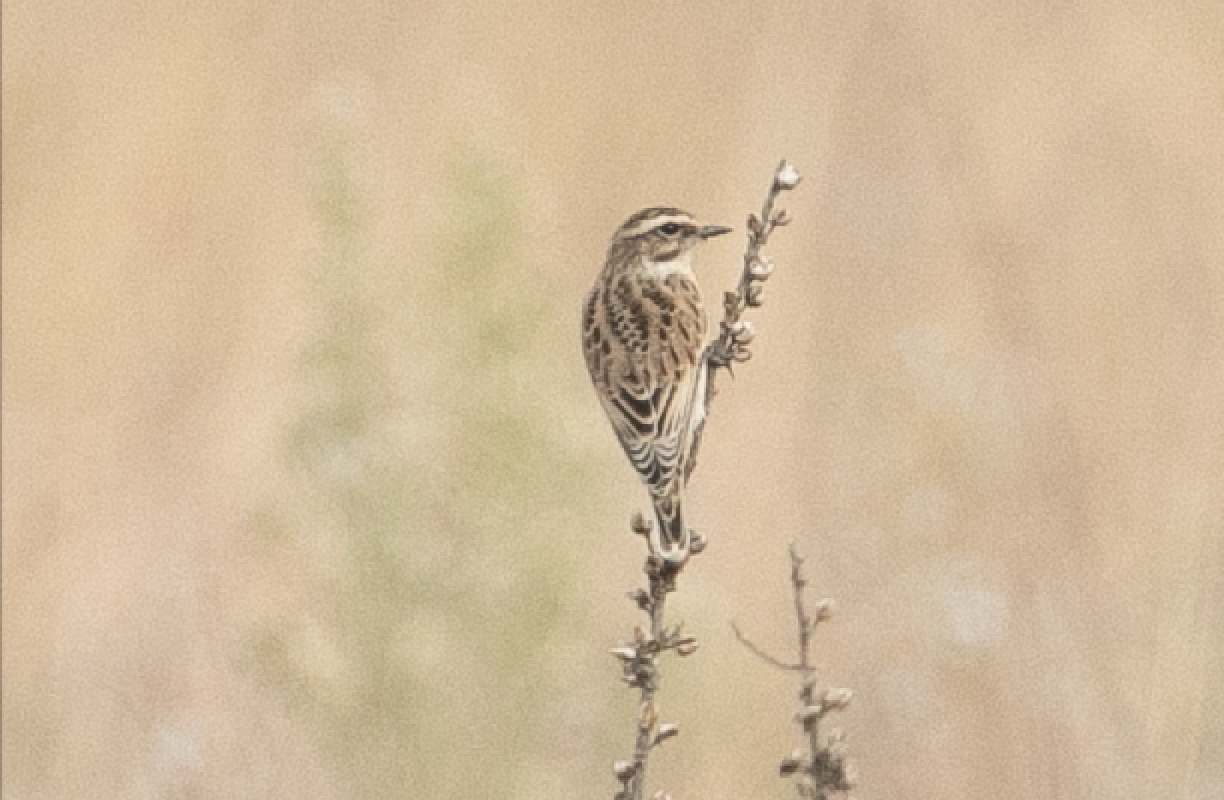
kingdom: Animalia
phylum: Chordata
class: Aves
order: Passeriformes
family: Muscicapidae
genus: Saxicola
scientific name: Saxicola rubetra
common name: Whinchat
